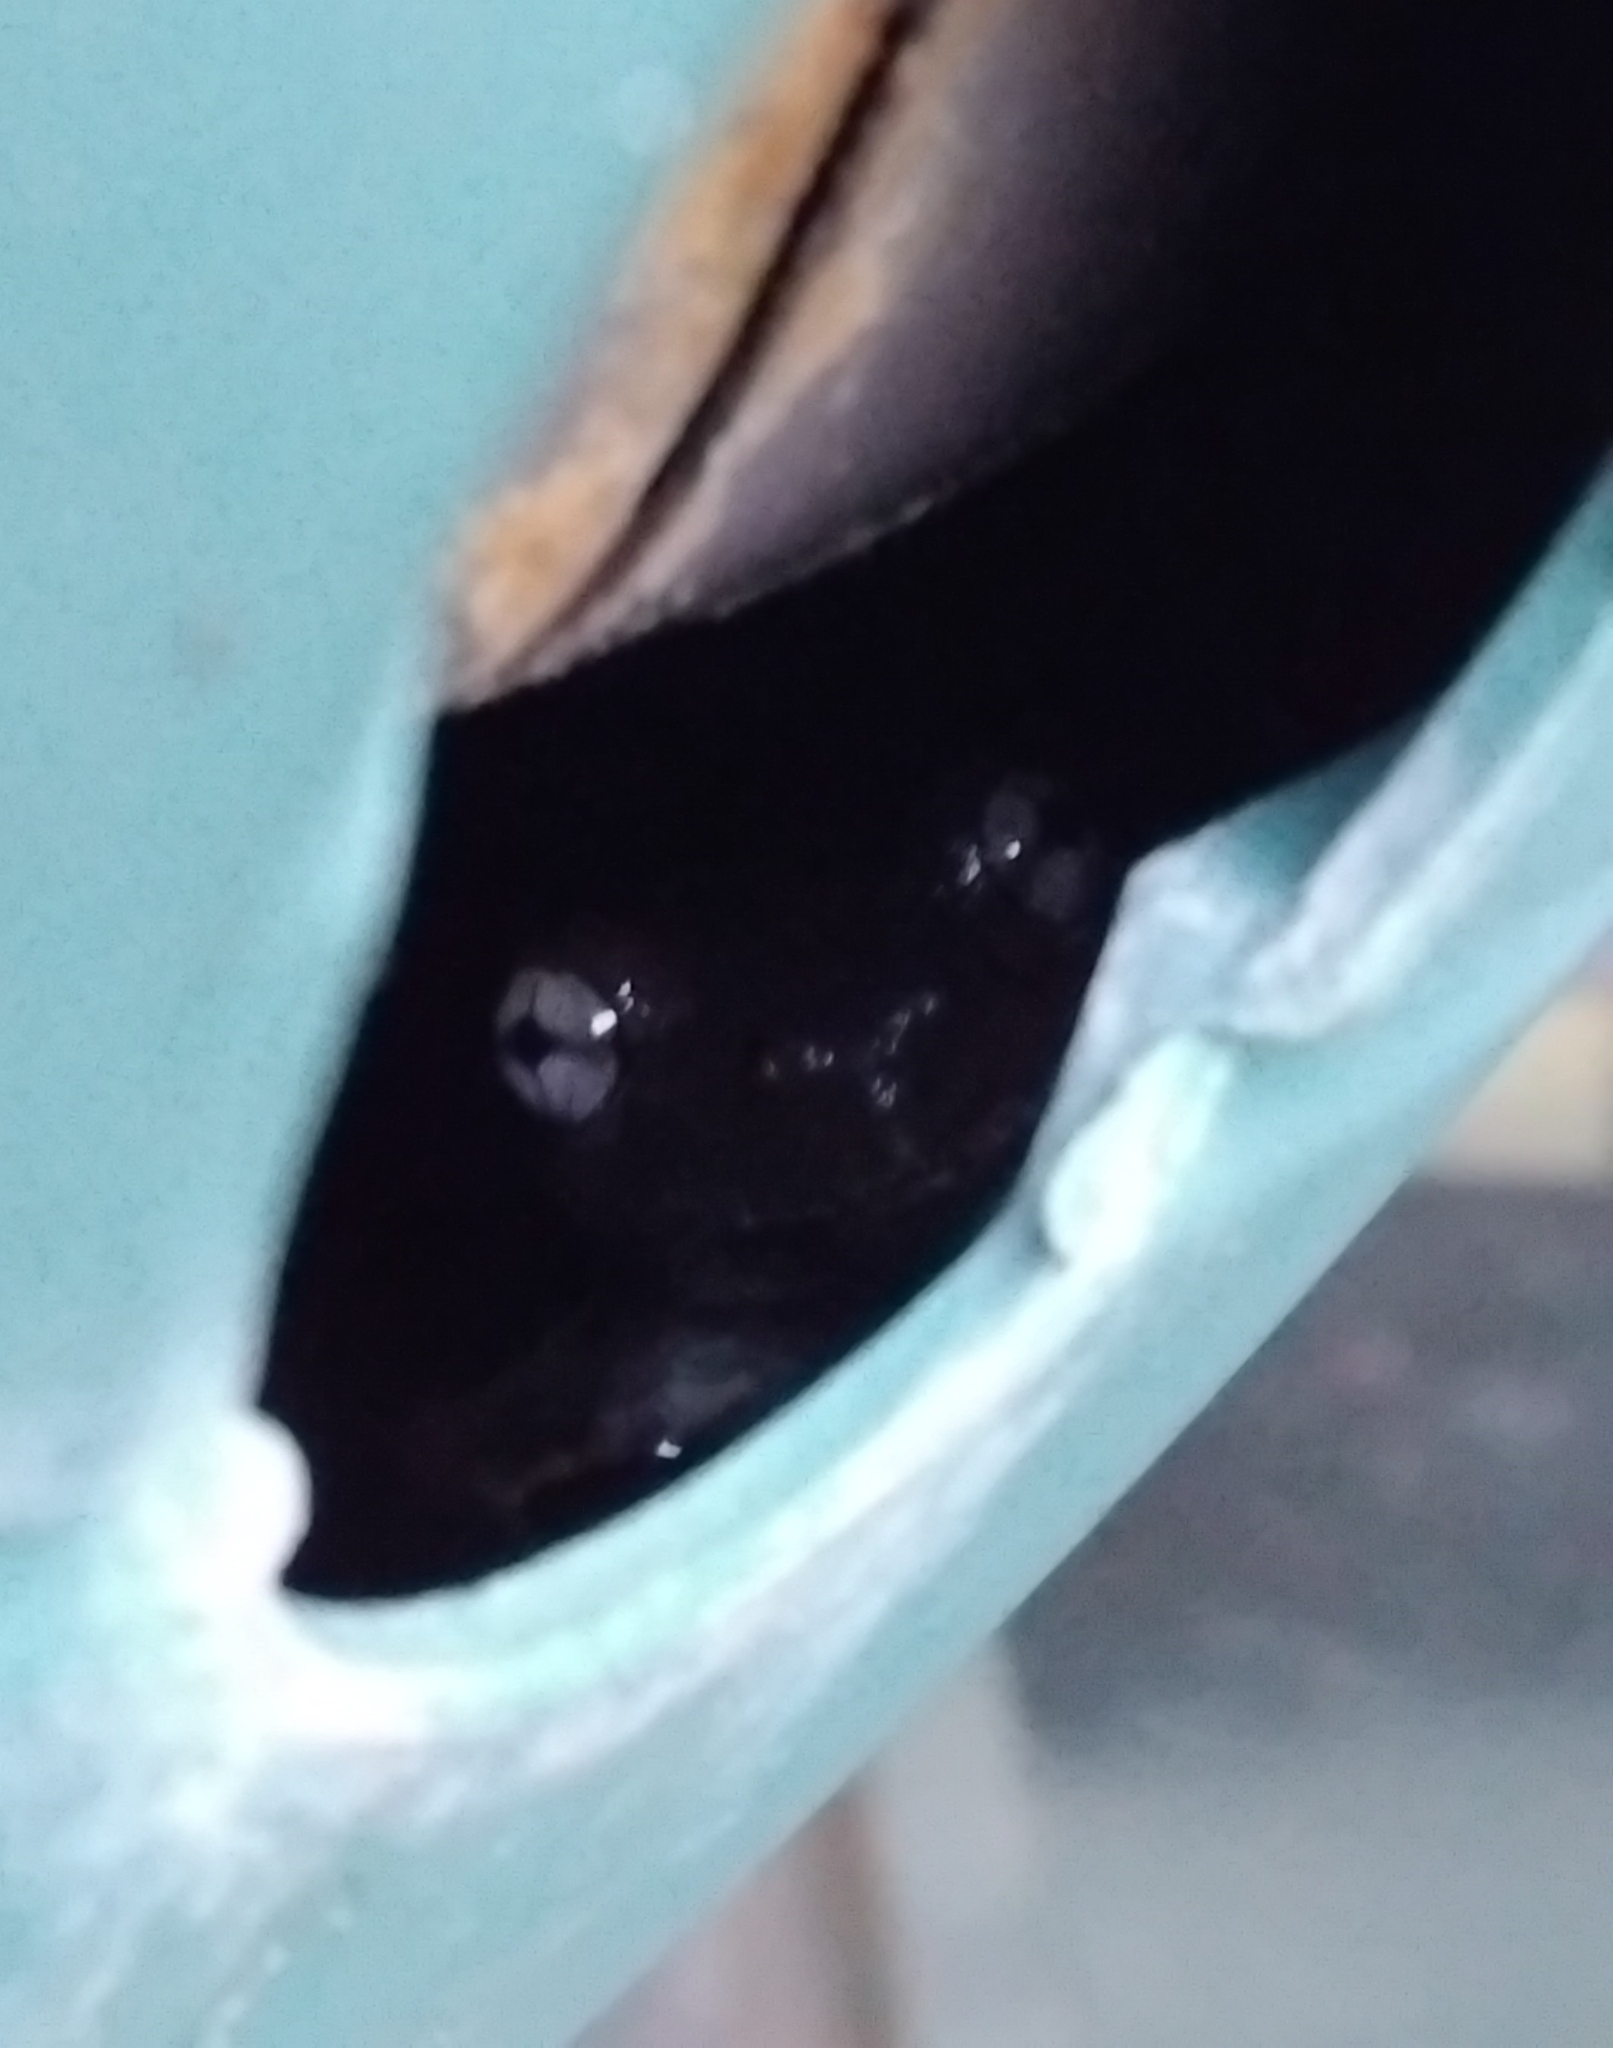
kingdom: Animalia
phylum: Chordata
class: Amphibia
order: Anura
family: Pelodryadidae
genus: Litoria
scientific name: Litoria peronii
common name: Emerald spotted treefrog
